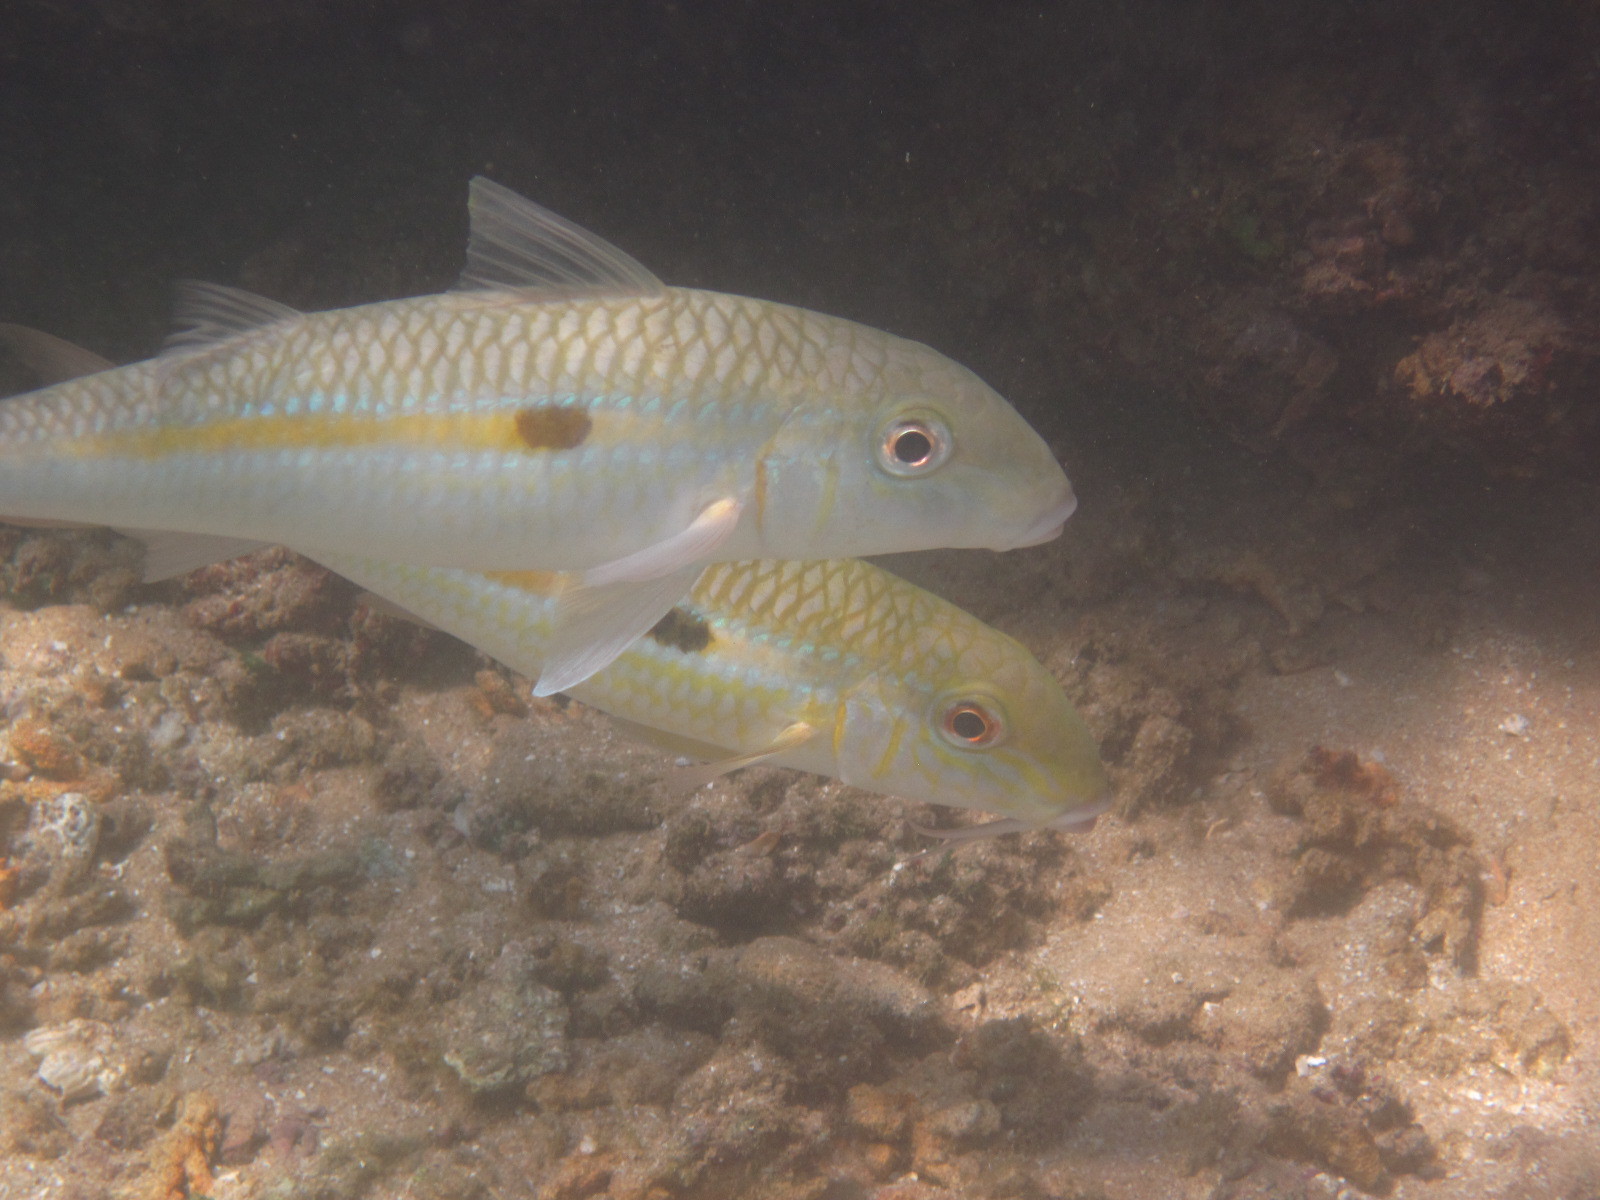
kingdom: Animalia
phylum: Chordata
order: Perciformes
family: Mullidae
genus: Mulloidichthys
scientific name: Mulloidichthys flavolineatus
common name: Yellowstripe goatfish
